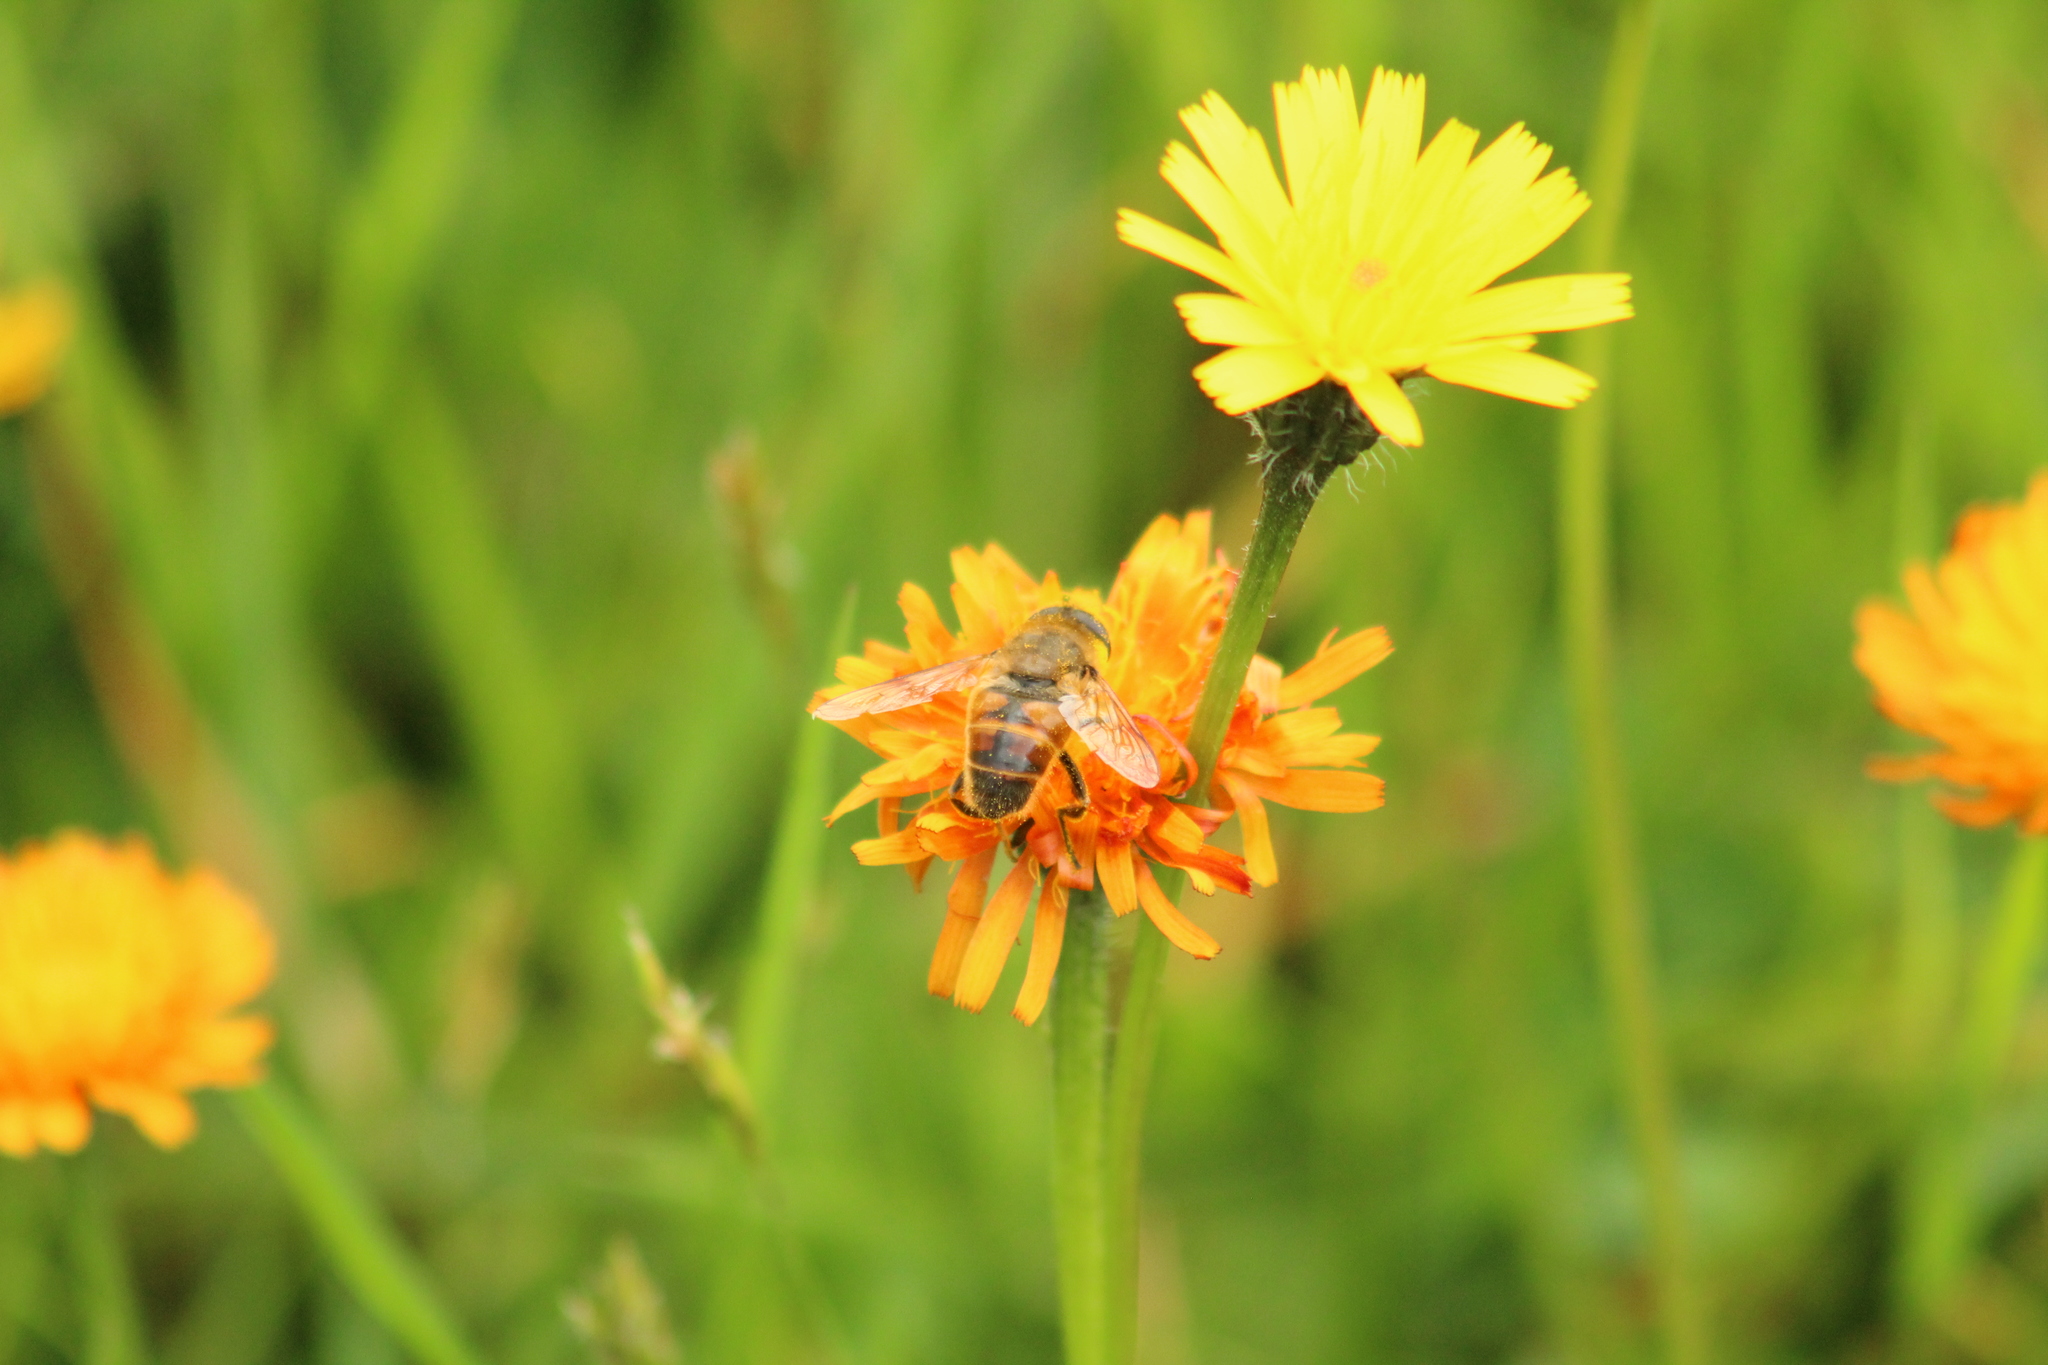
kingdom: Animalia
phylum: Arthropoda
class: Insecta
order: Diptera
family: Syrphidae
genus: Eristalis
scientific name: Eristalis tenax
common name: Drone fly
